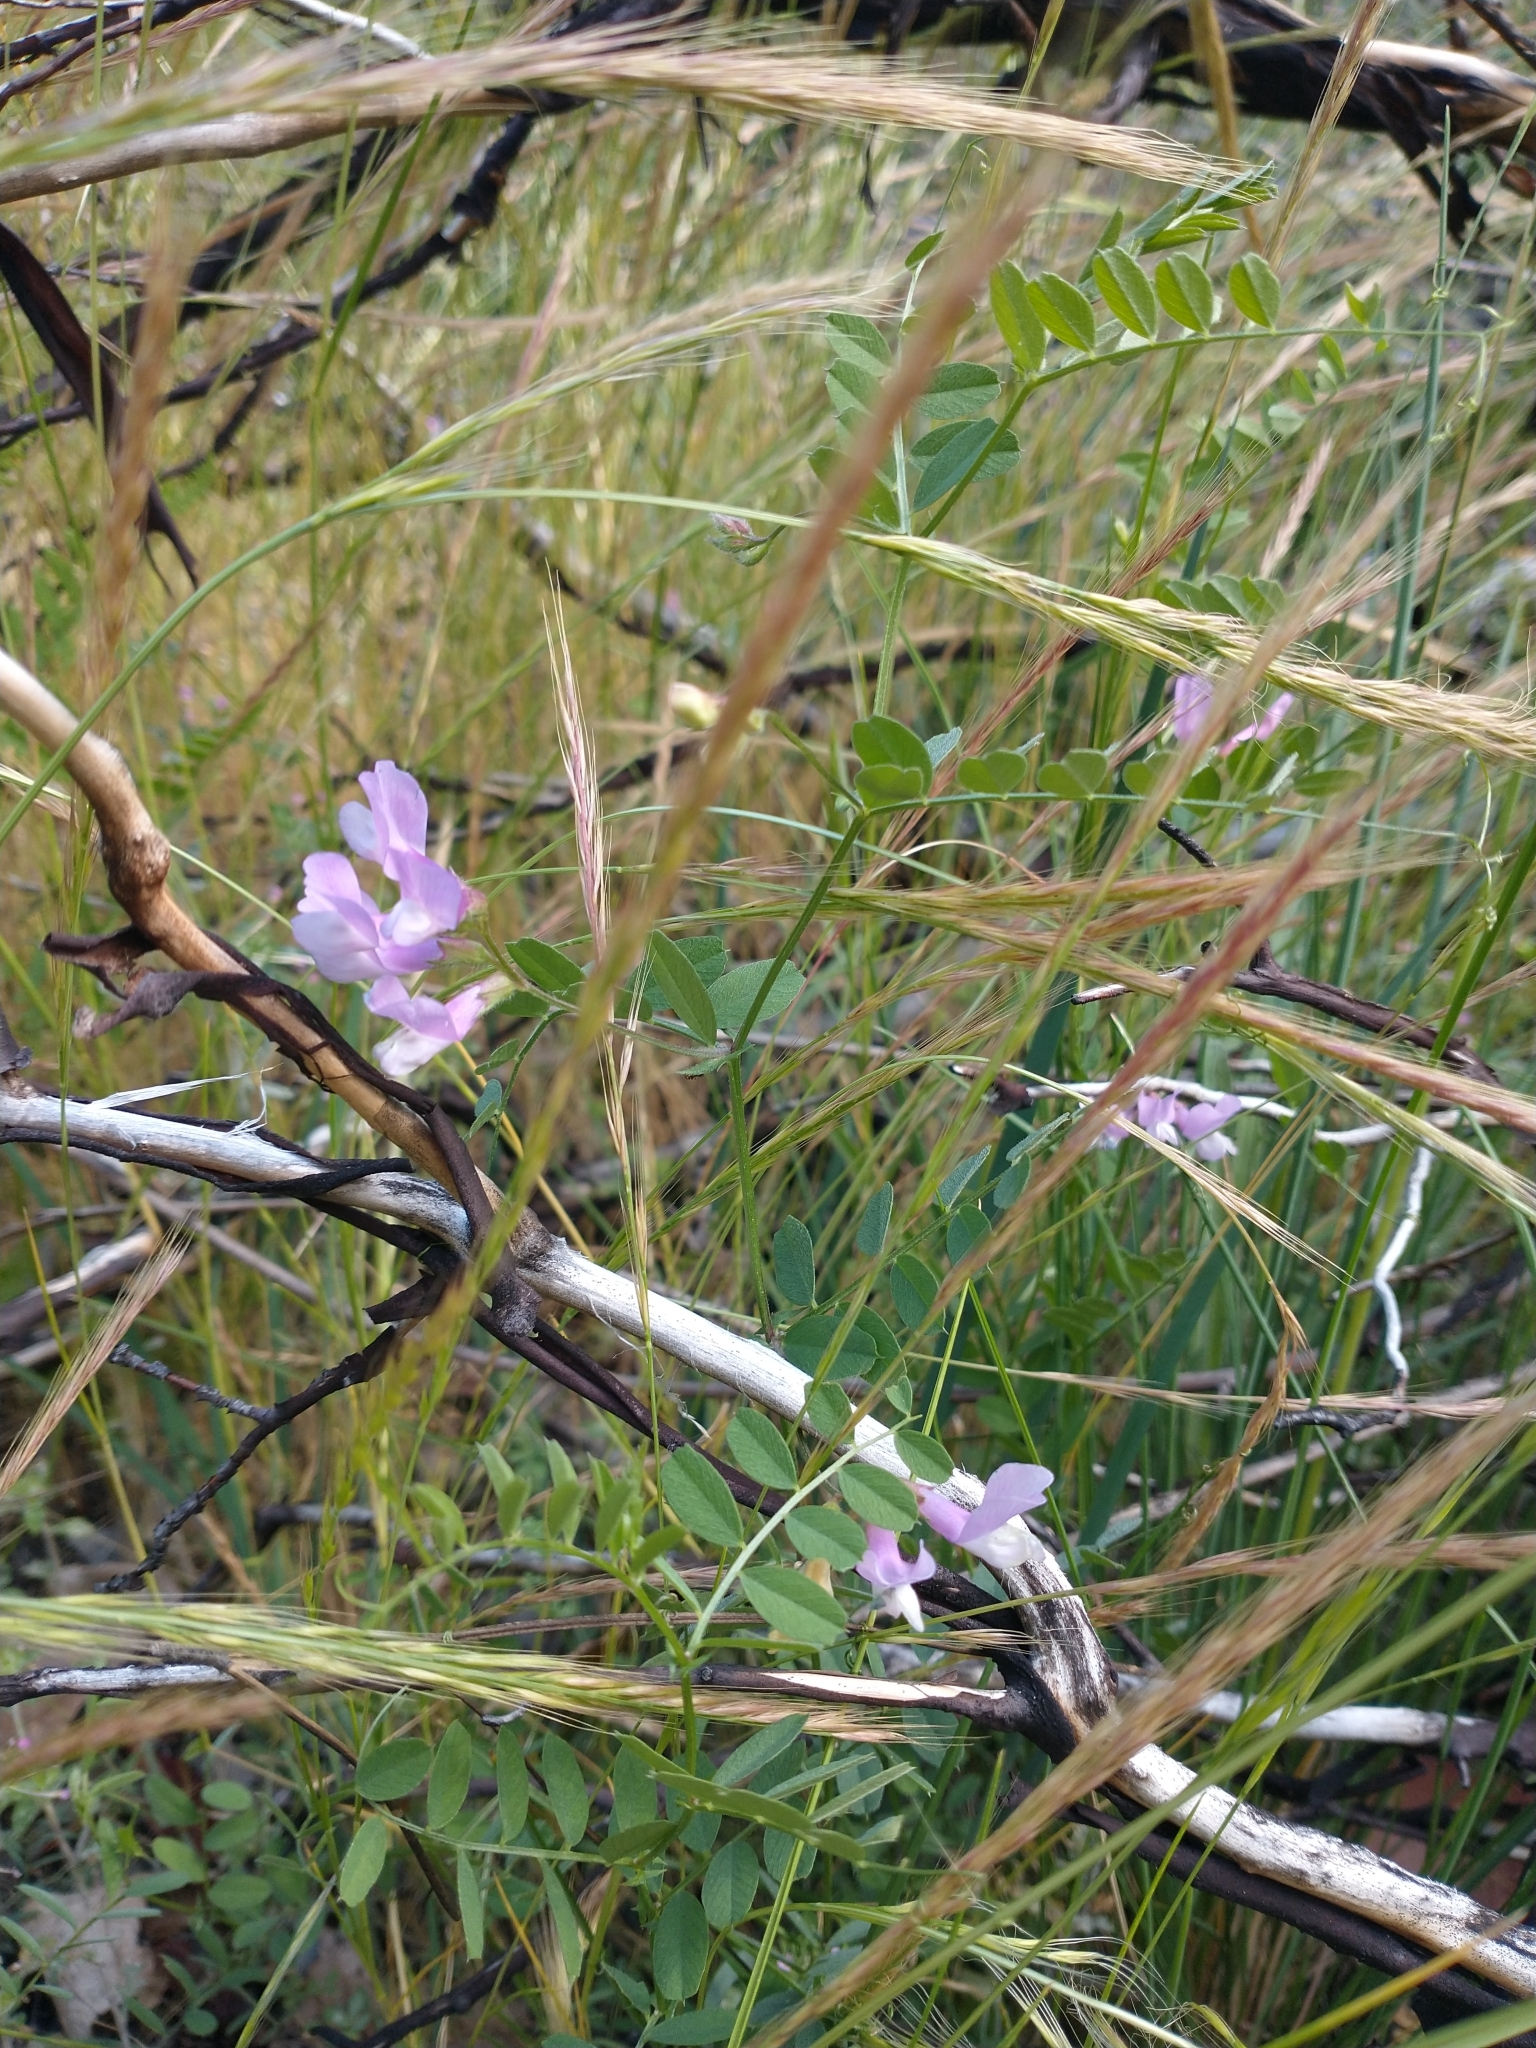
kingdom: Plantae
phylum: Tracheophyta
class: Magnoliopsida
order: Fabales
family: Fabaceae
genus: Lathyrus
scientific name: Lathyrus vestitus
